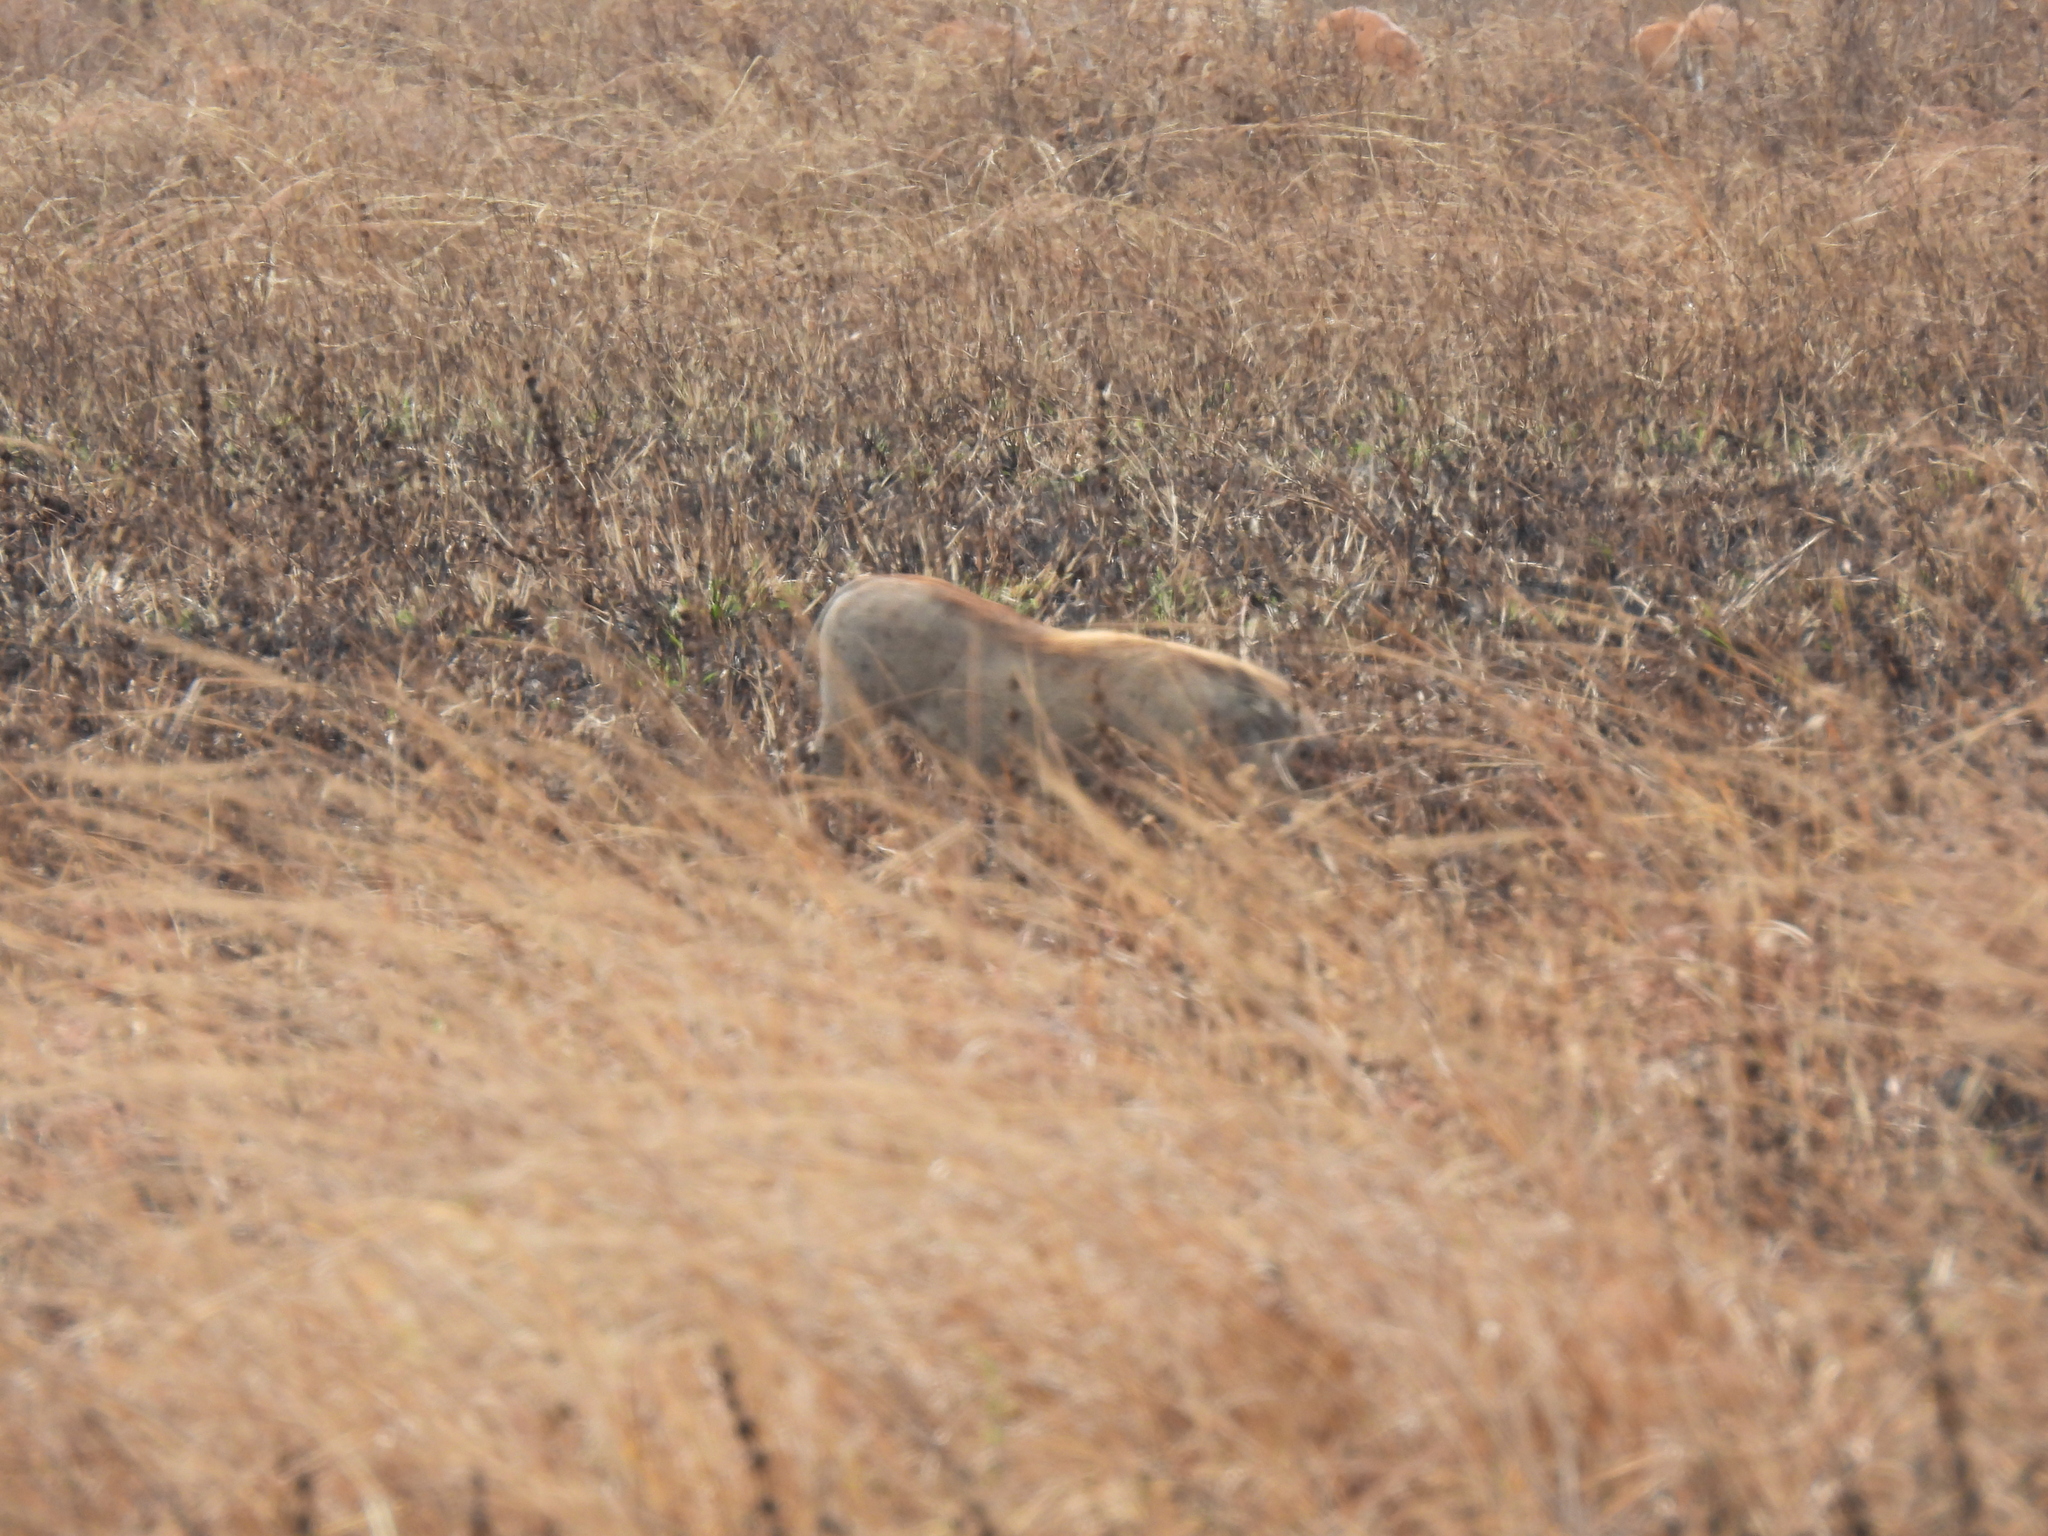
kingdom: Animalia
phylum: Chordata
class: Mammalia
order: Artiodactyla
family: Suidae
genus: Phacochoerus
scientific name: Phacochoerus africanus
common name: Common warthog
